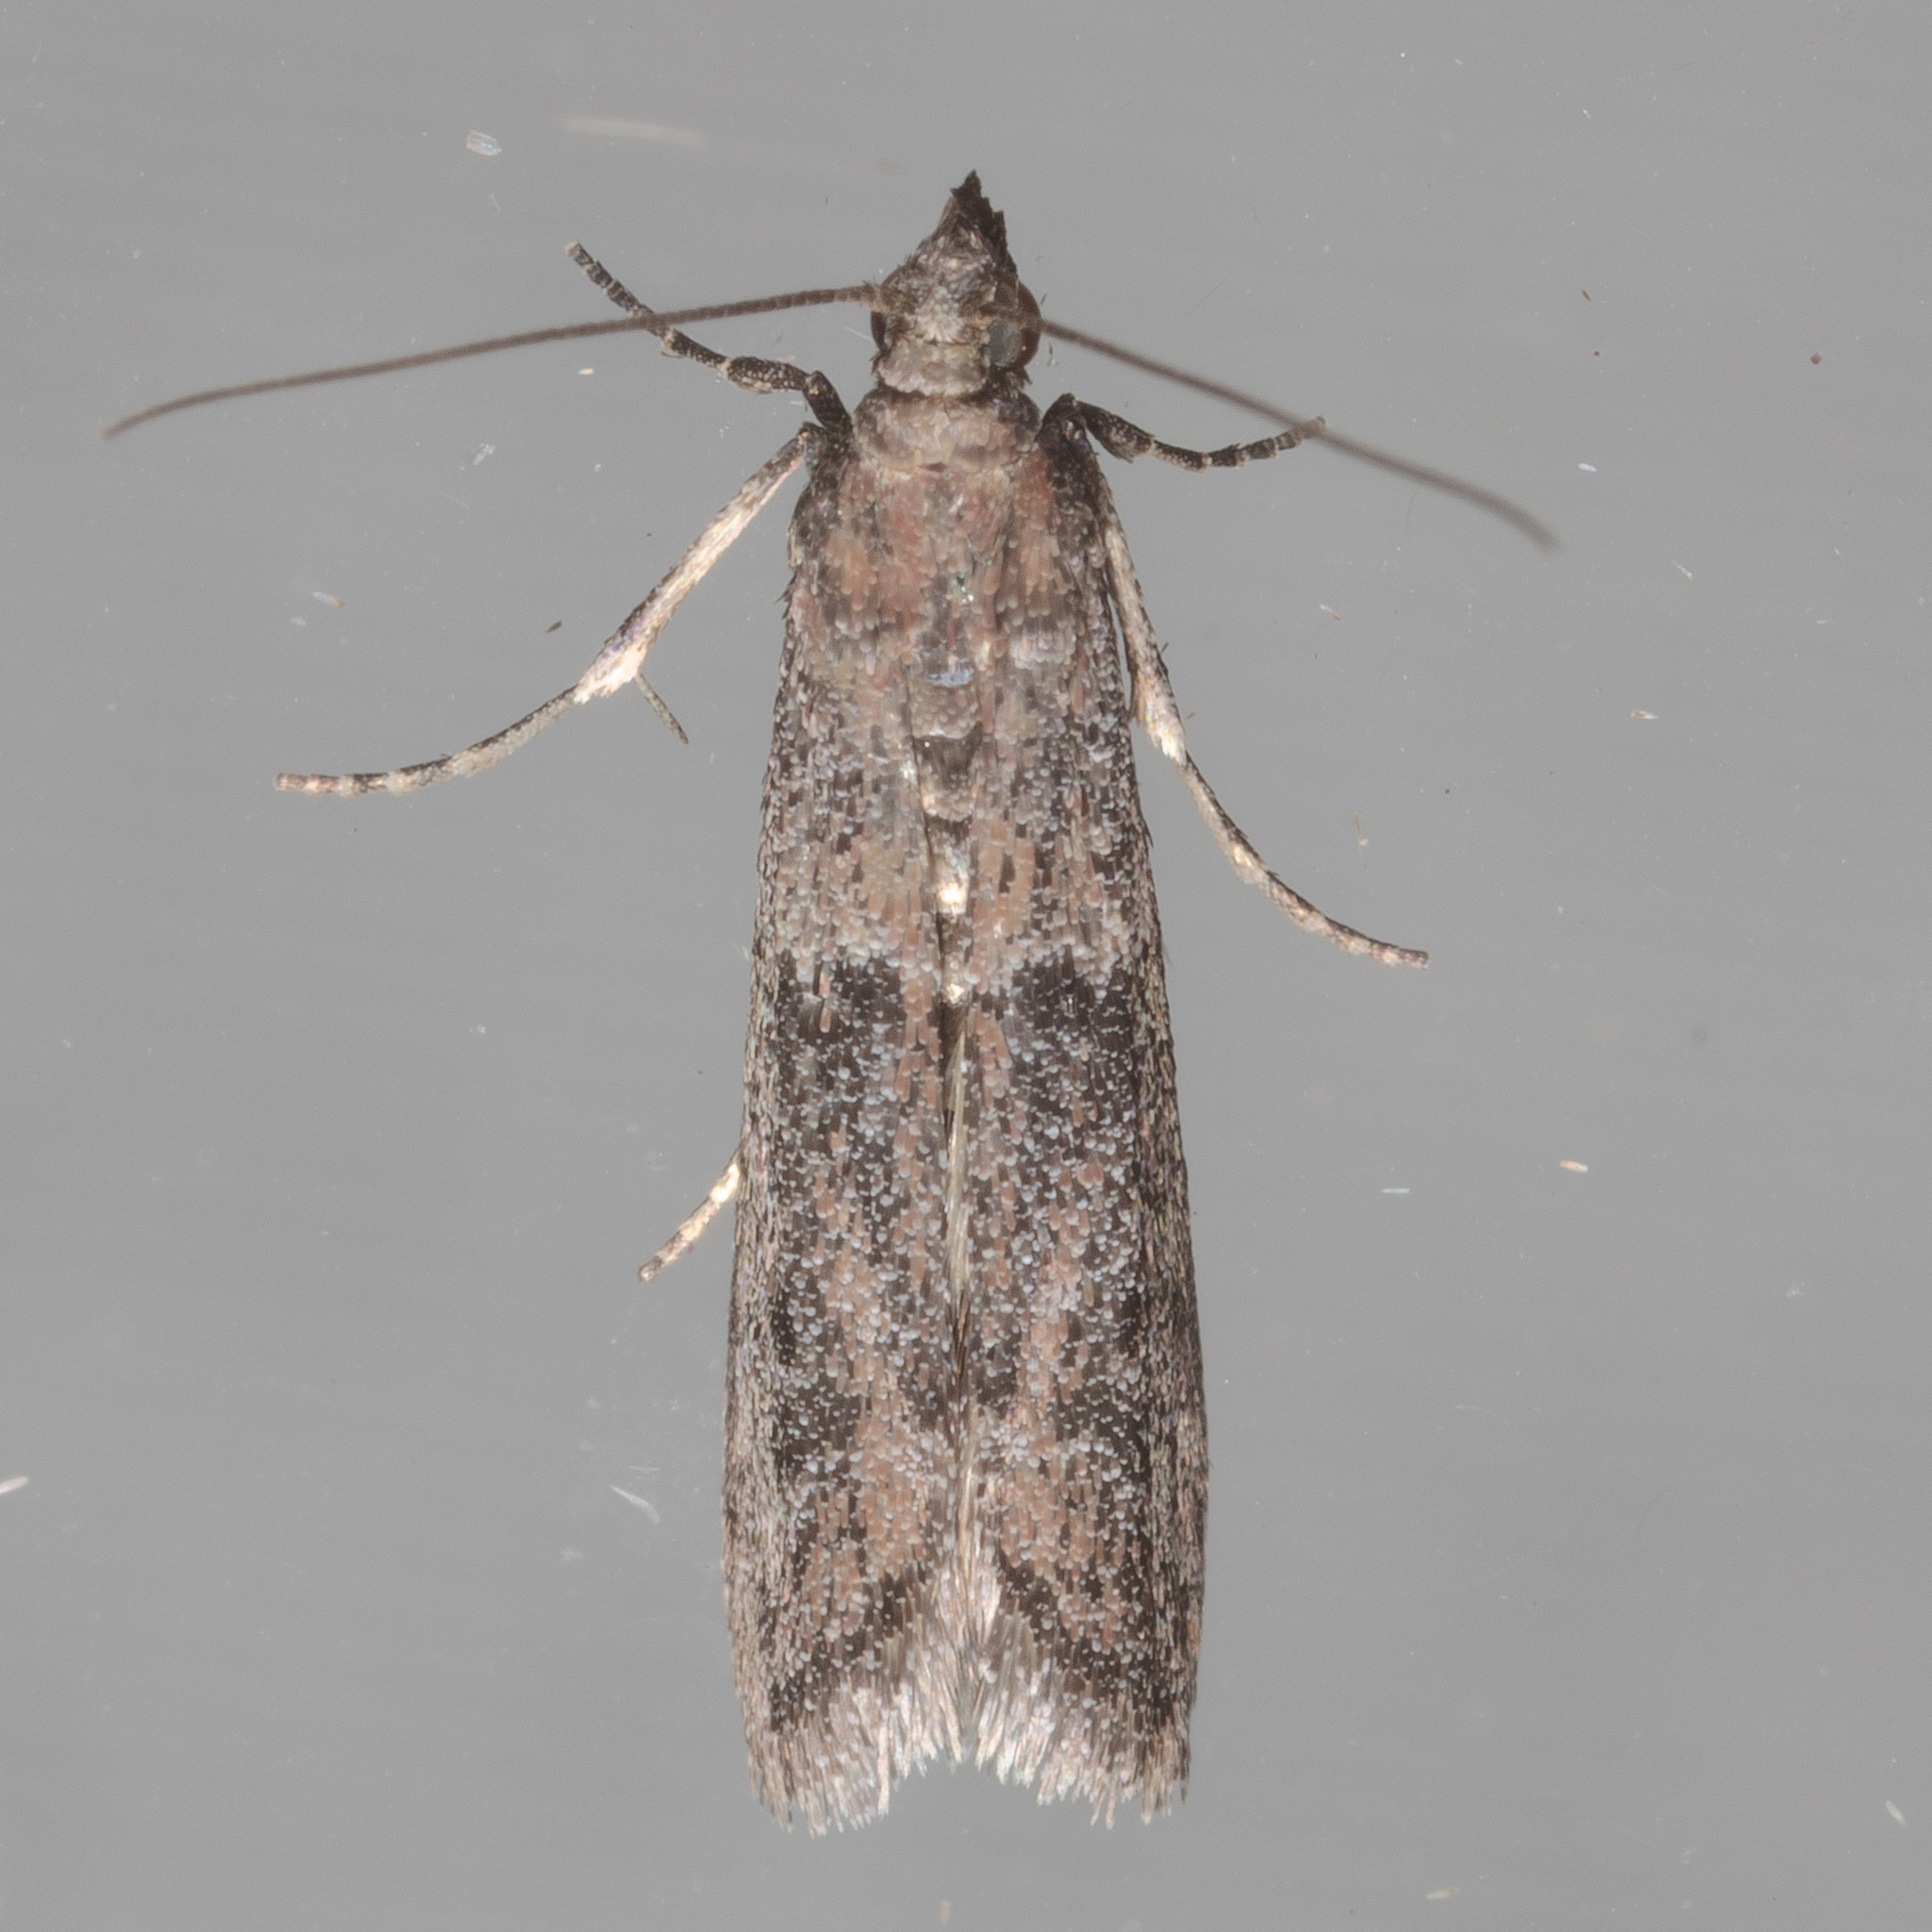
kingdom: Animalia
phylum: Arthropoda
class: Insecta
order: Lepidoptera
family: Pyralidae
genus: Ephestiodes
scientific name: Ephestiodes gilvescentella
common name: Moth
